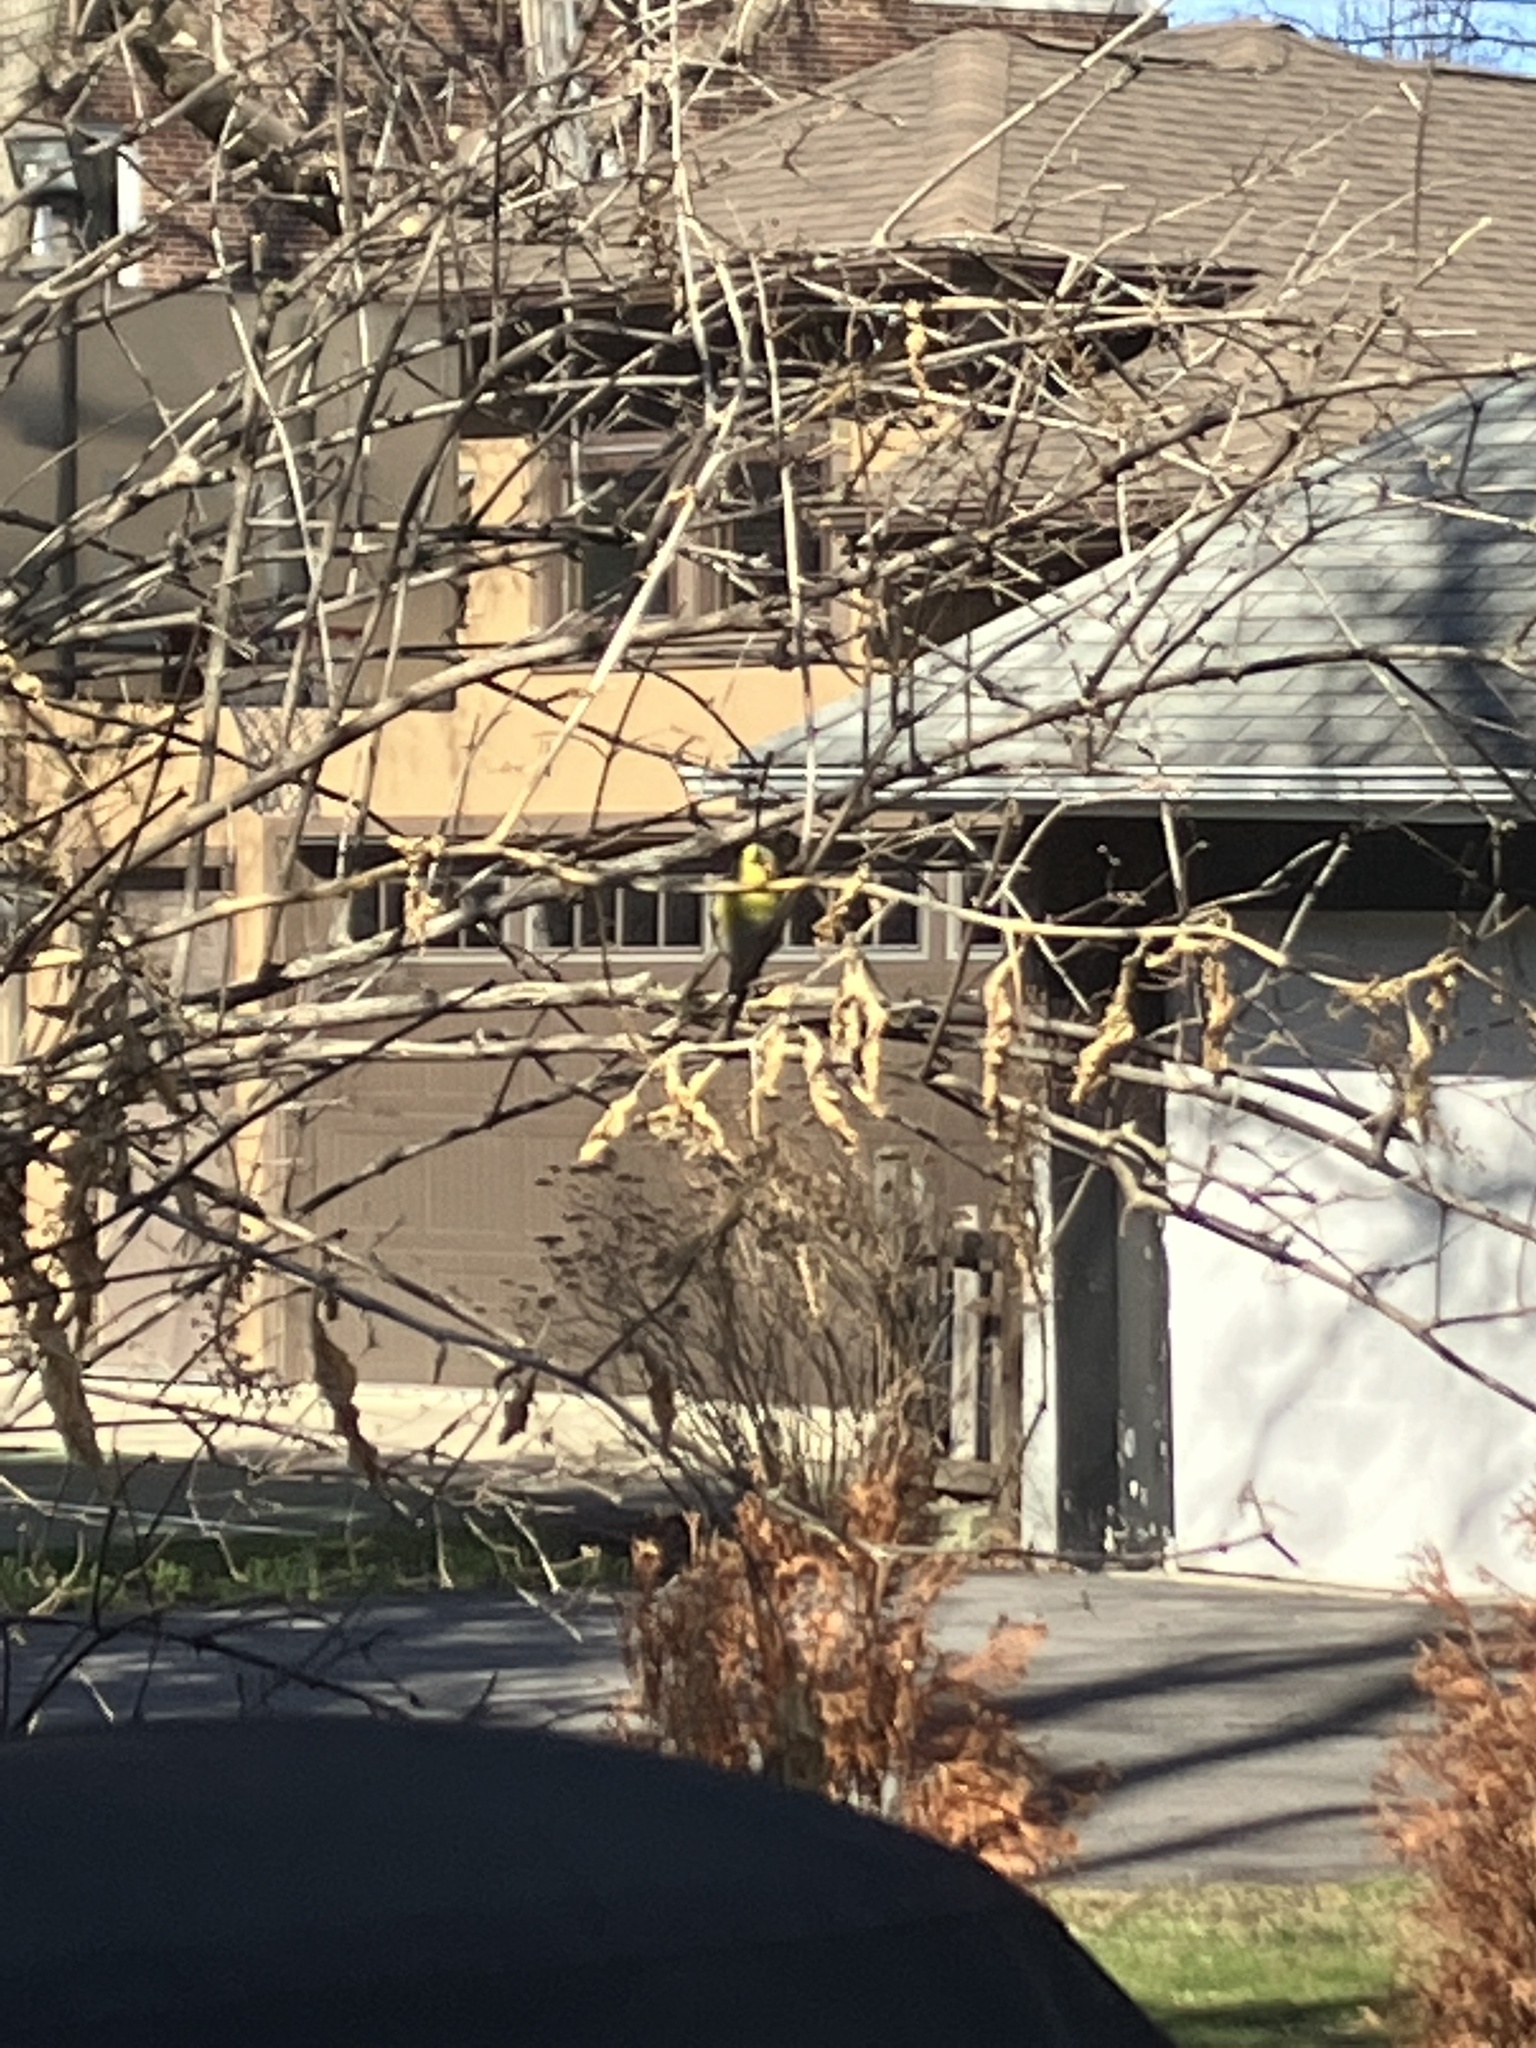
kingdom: Animalia
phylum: Chordata
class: Aves
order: Passeriformes
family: Fringillidae
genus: Spinus
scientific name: Spinus tristis
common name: American goldfinch
